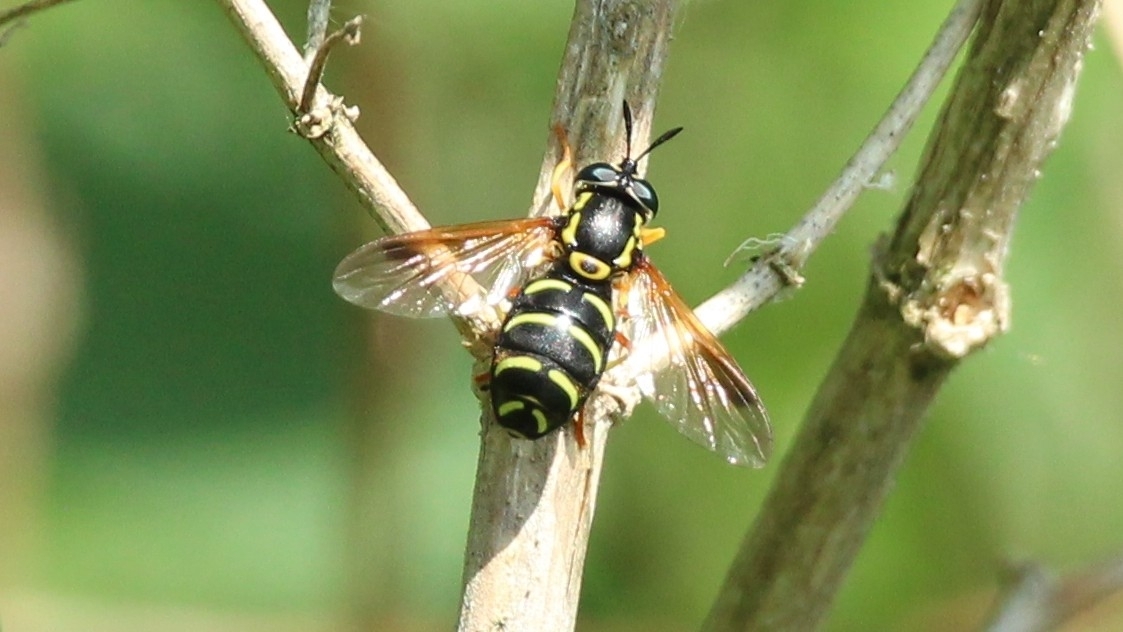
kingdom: Animalia
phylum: Arthropoda
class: Insecta
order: Diptera
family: Syrphidae
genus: Chrysotoxum
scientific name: Chrysotoxum festivum
